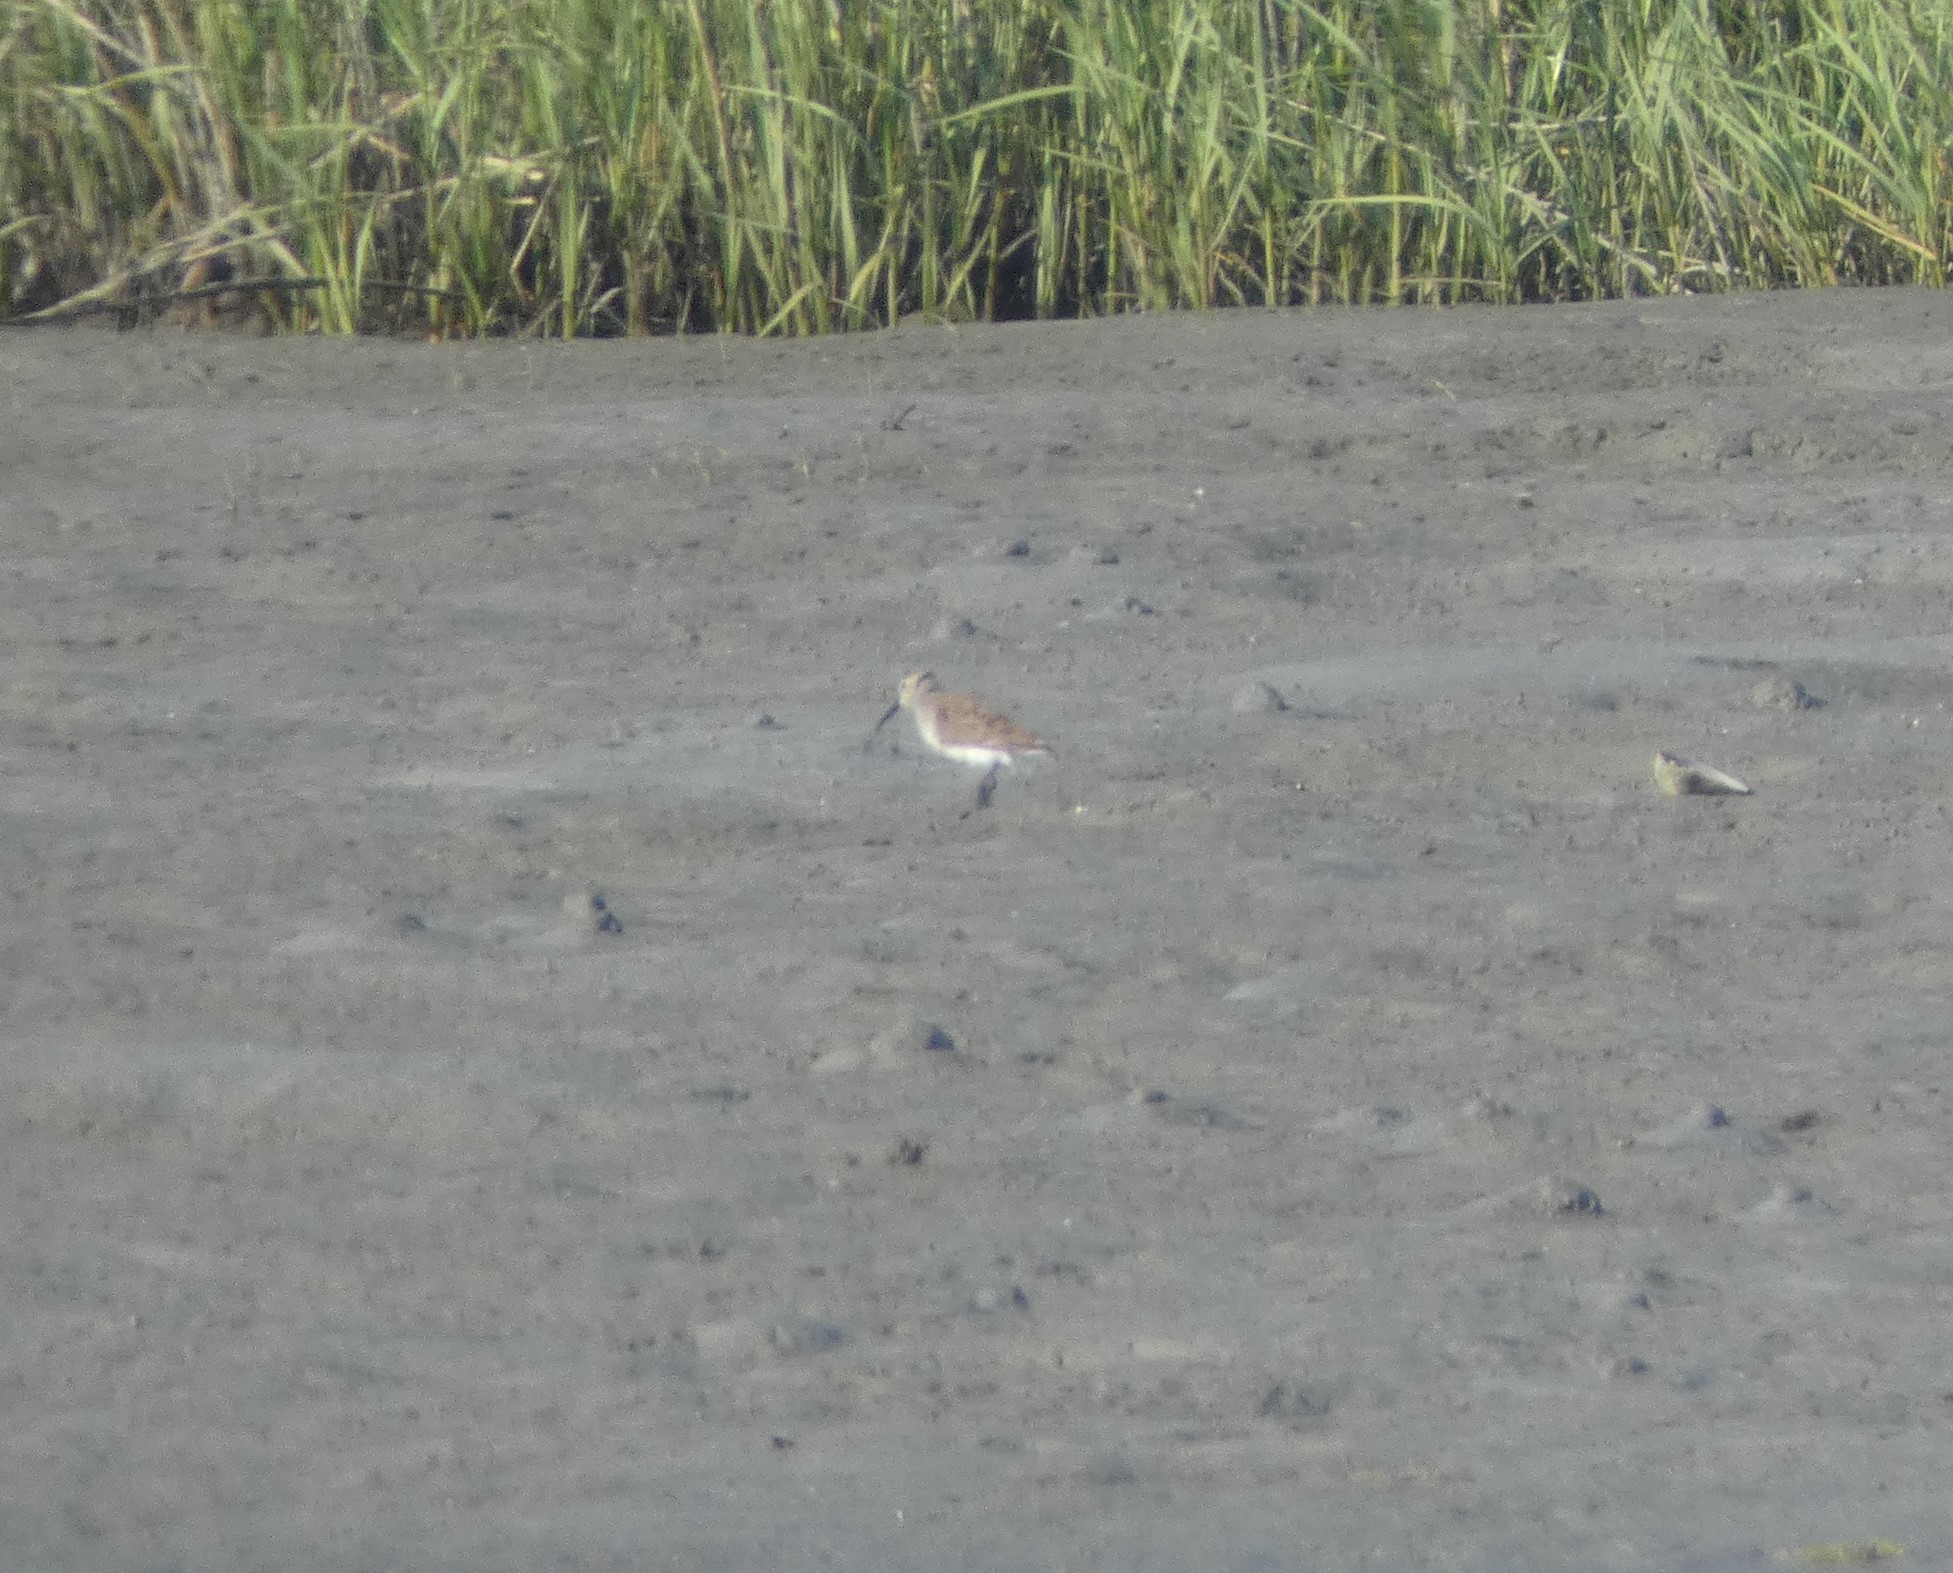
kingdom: Animalia
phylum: Chordata
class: Aves
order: Charadriiformes
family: Scolopacidae
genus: Calidris
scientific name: Calidris alpina
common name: Dunlin
